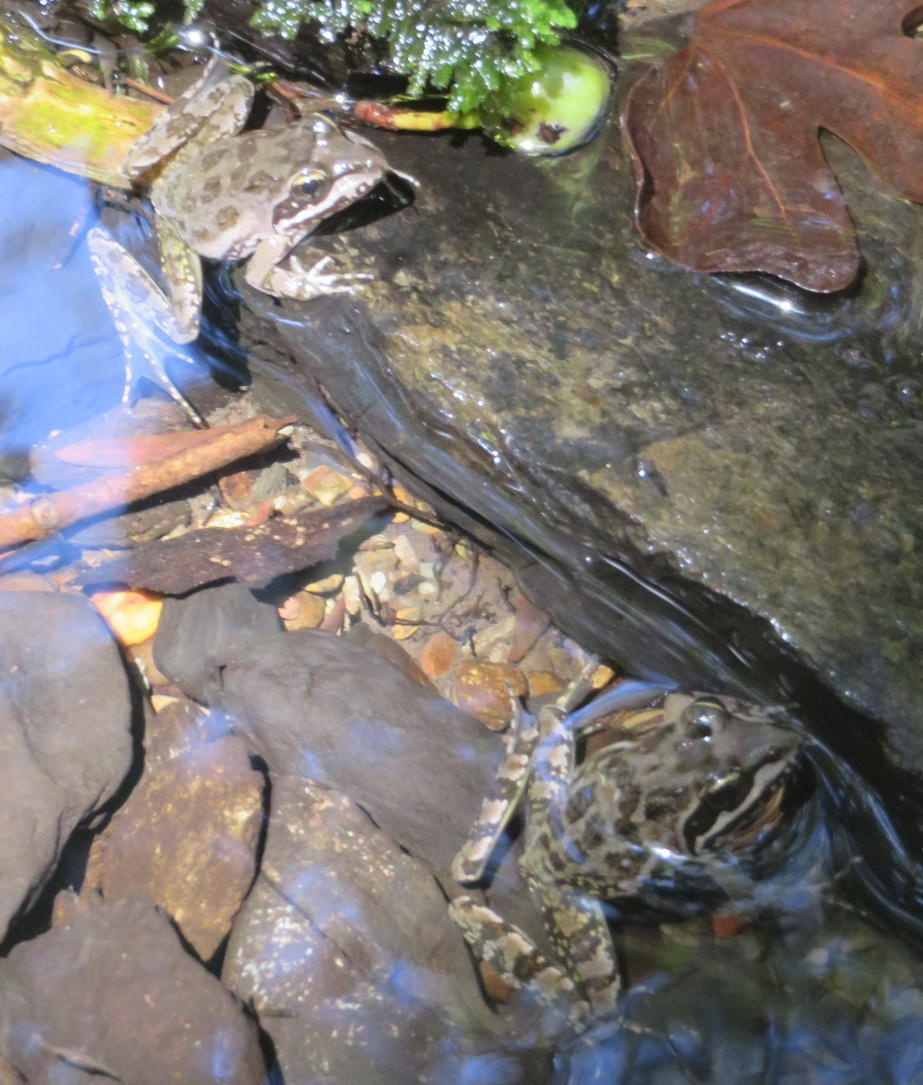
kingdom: Animalia
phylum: Chordata
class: Amphibia
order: Anura
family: Pyxicephalidae
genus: Amietia
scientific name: Amietia fuscigula
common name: Cape rana
